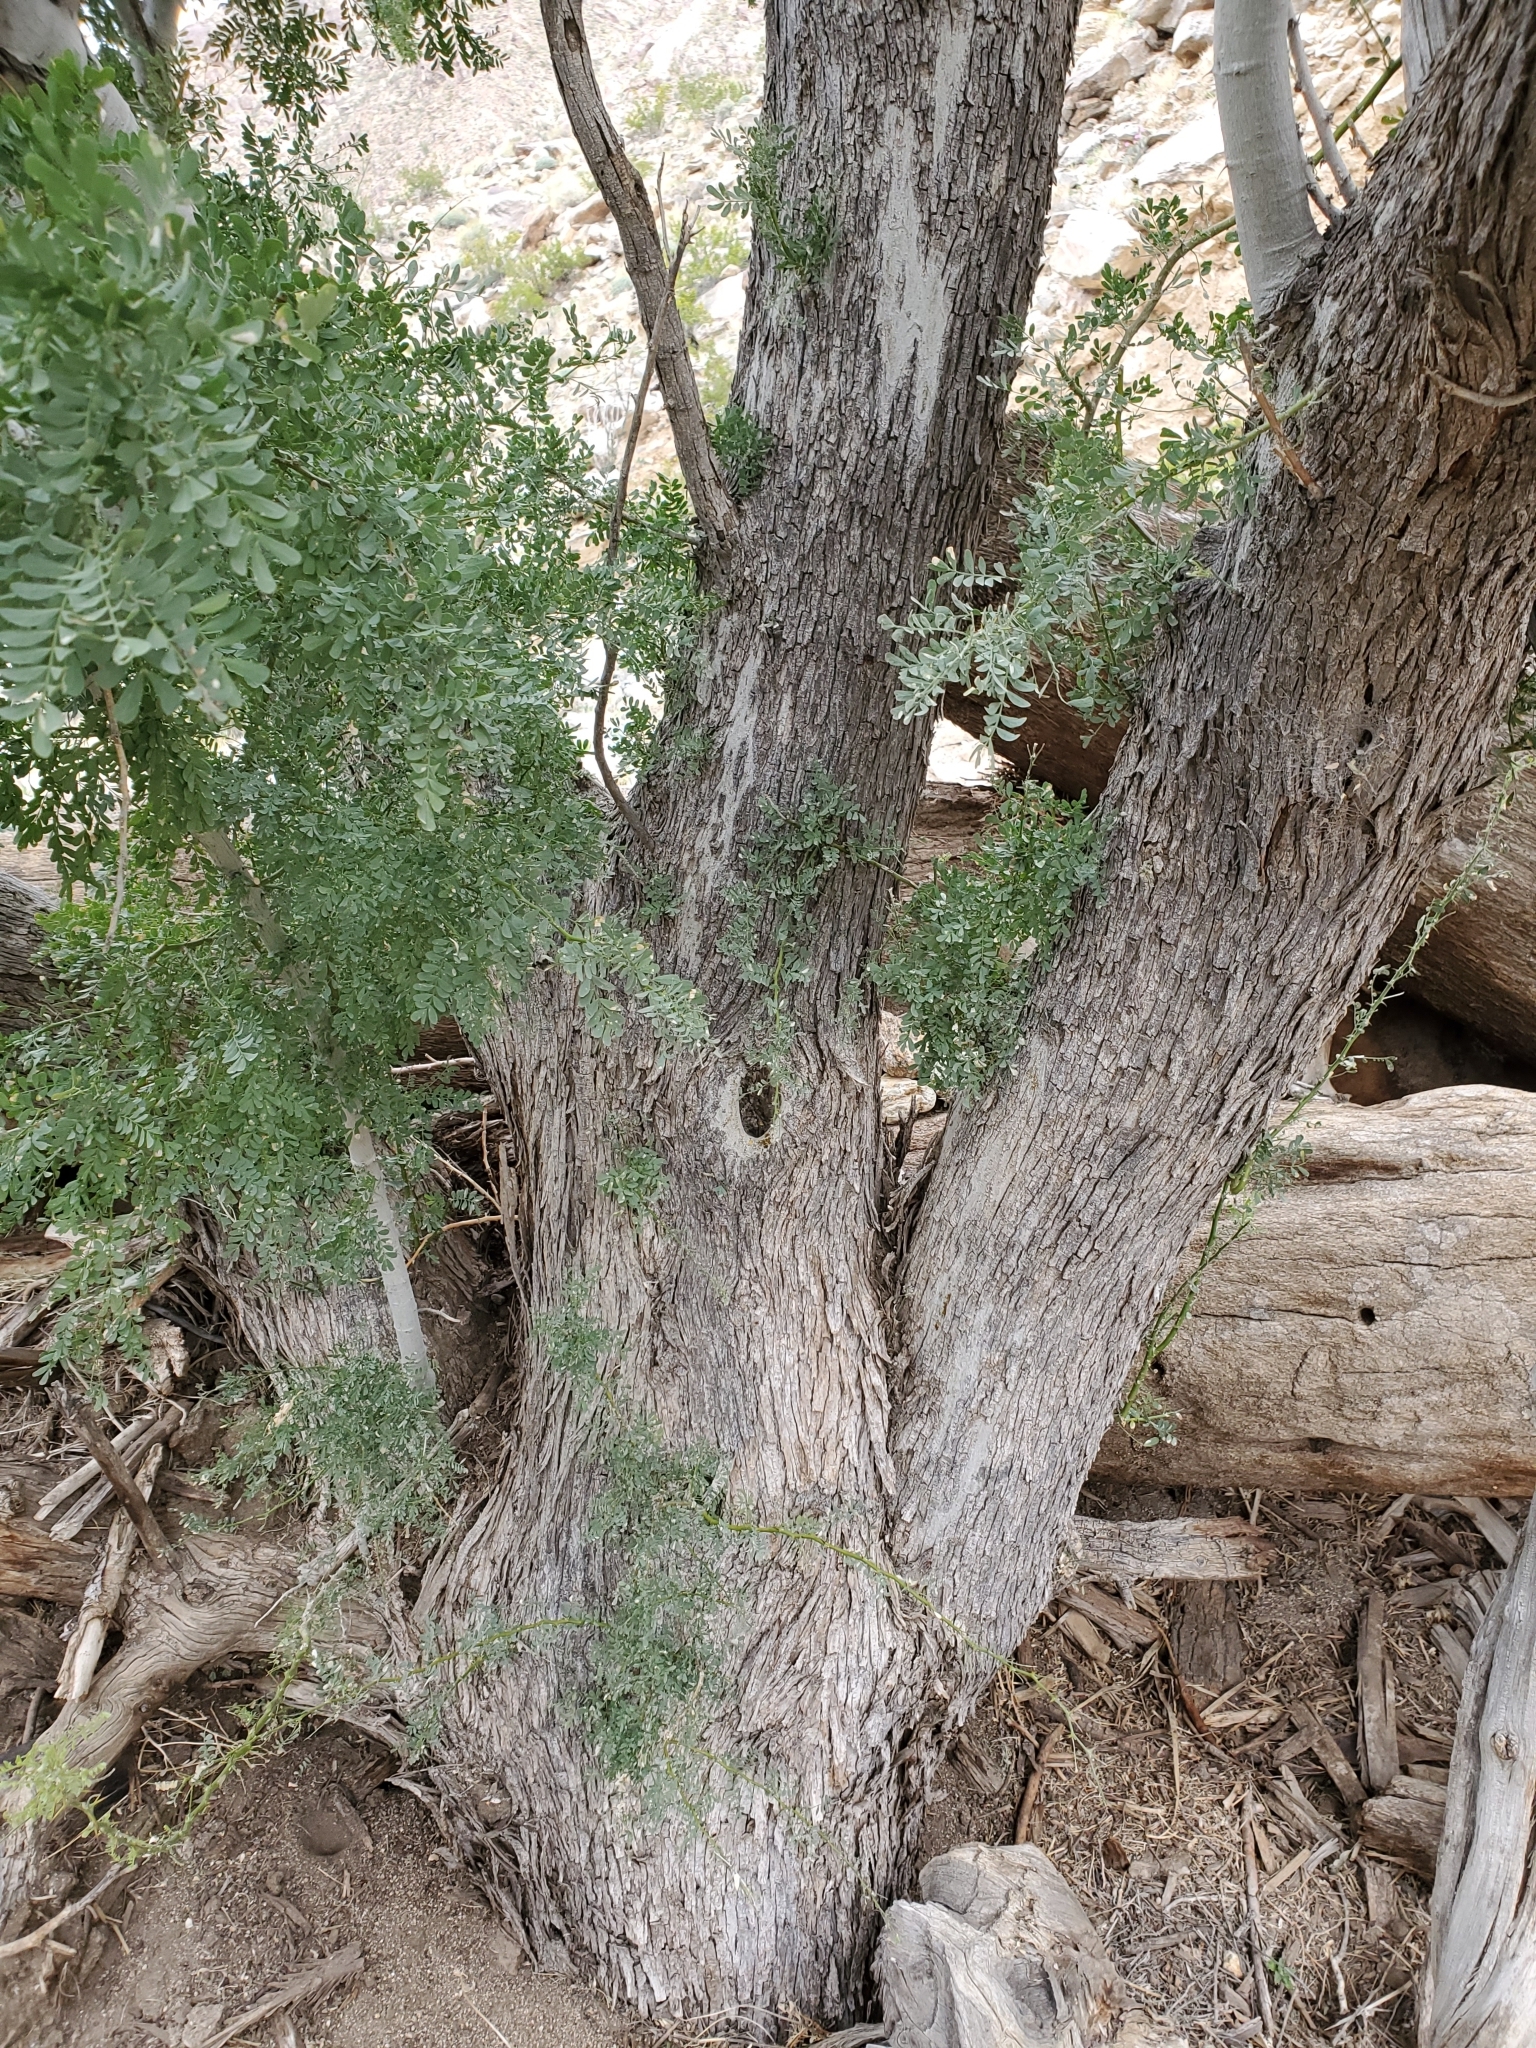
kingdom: Plantae
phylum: Tracheophyta
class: Magnoliopsida
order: Fabales
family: Fabaceae
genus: Olneya
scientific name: Olneya tesota
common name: Desert ironwood
